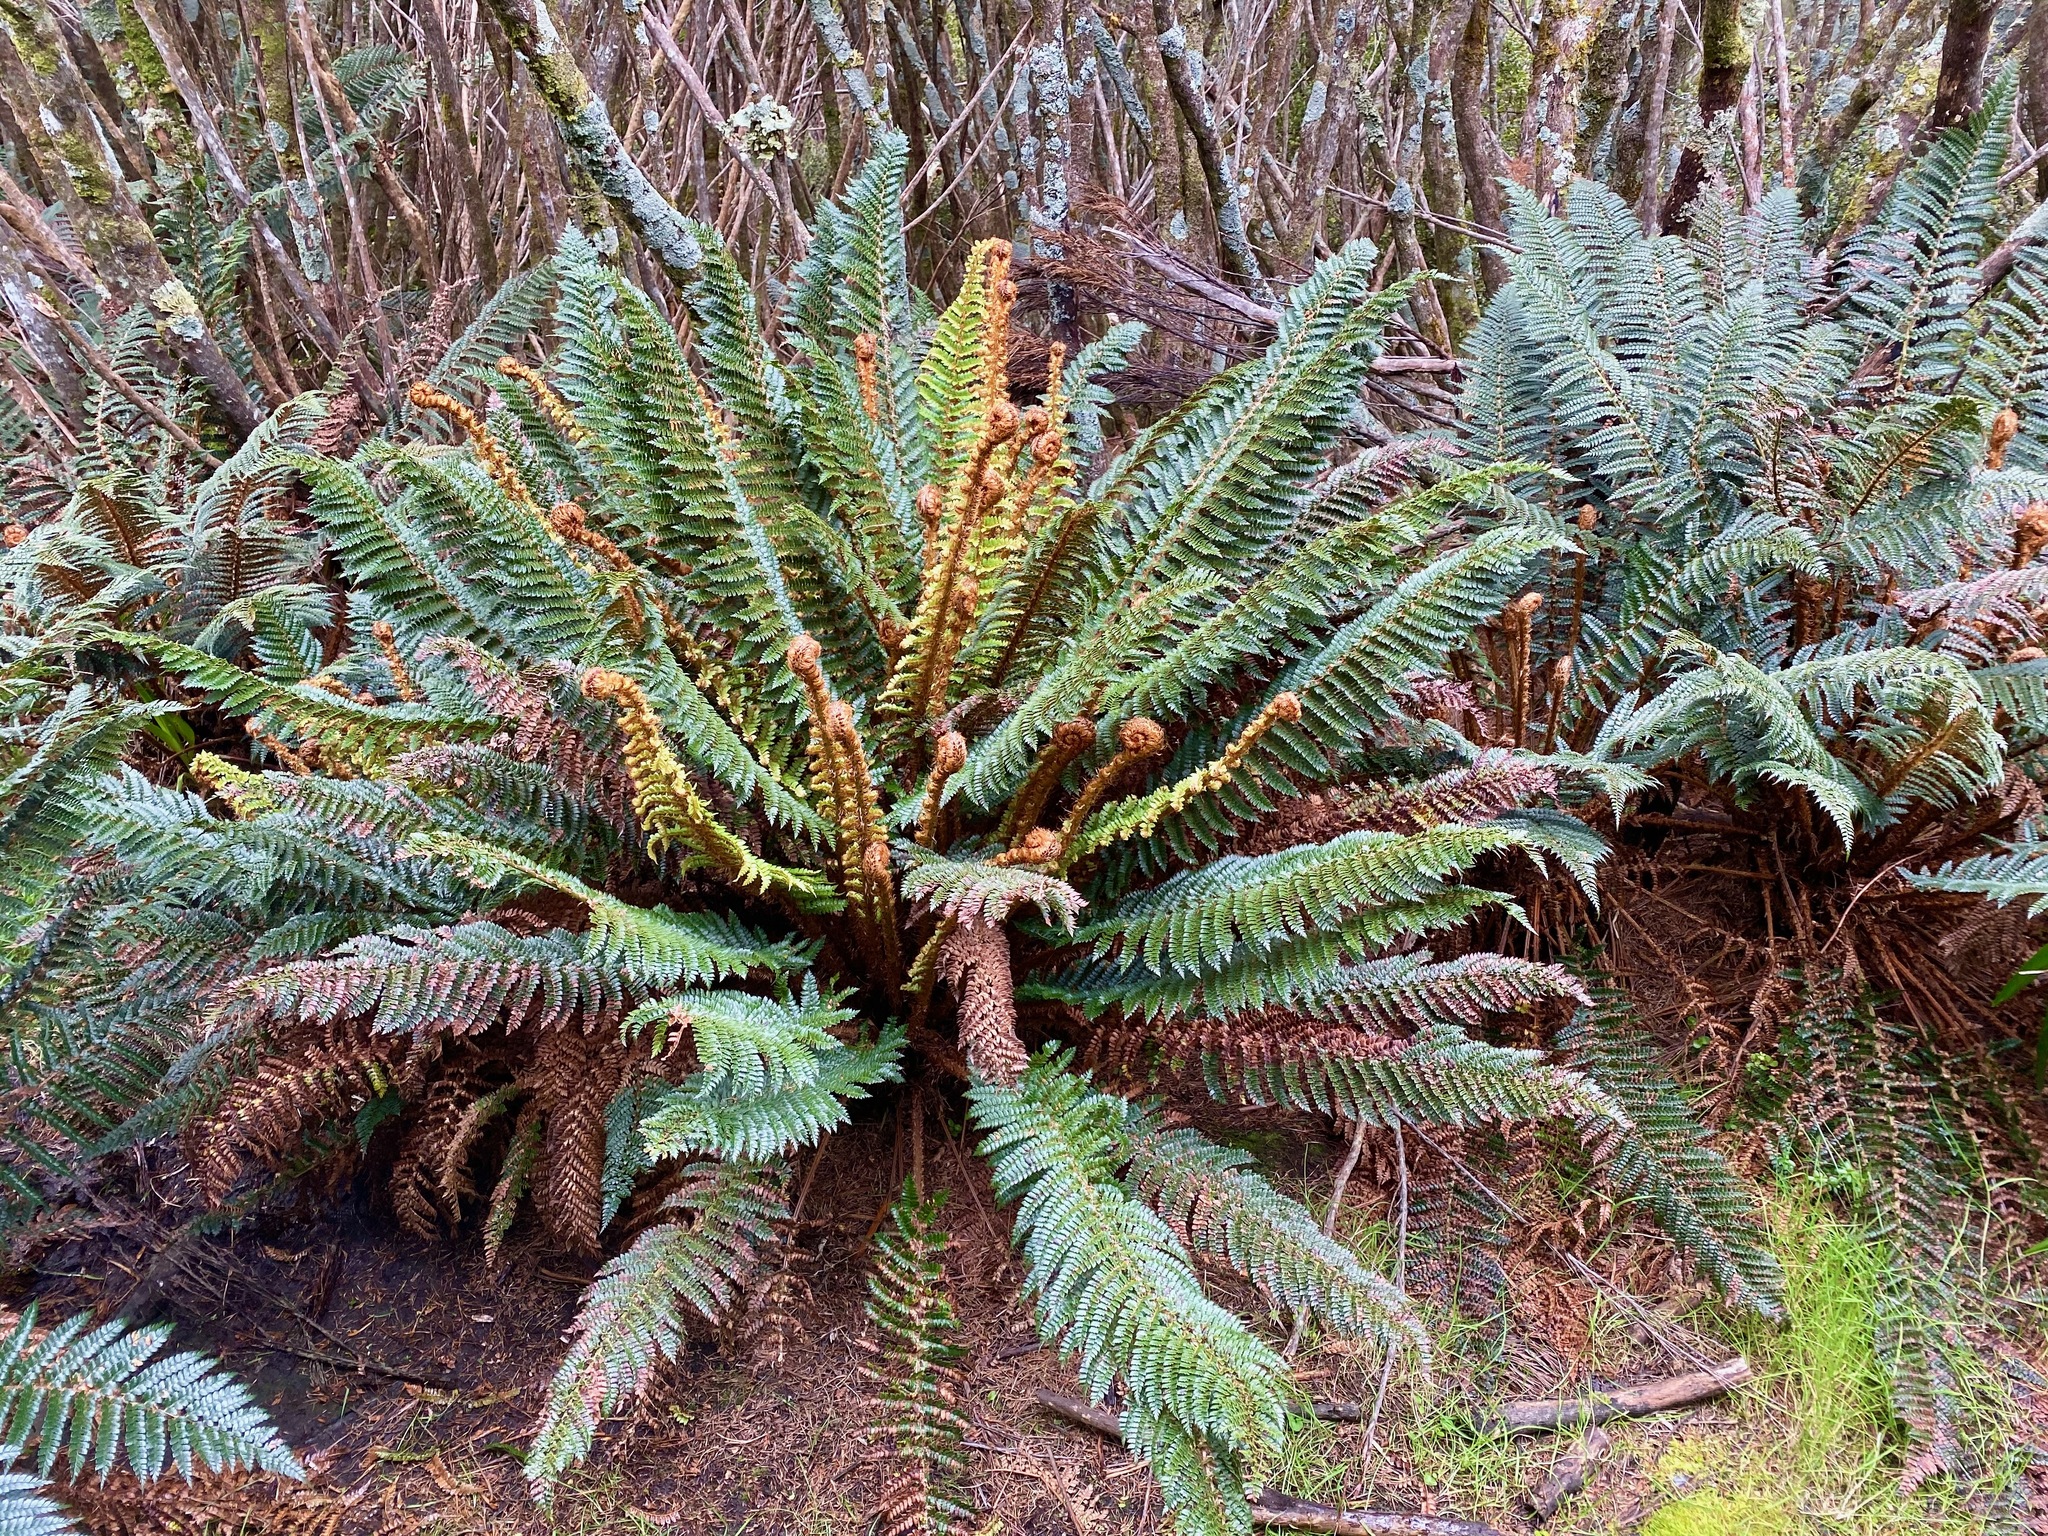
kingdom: Plantae
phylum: Tracheophyta
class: Polypodiopsida
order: Polypodiales
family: Dryopteridaceae
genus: Polystichum
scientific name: Polystichum vestitum
